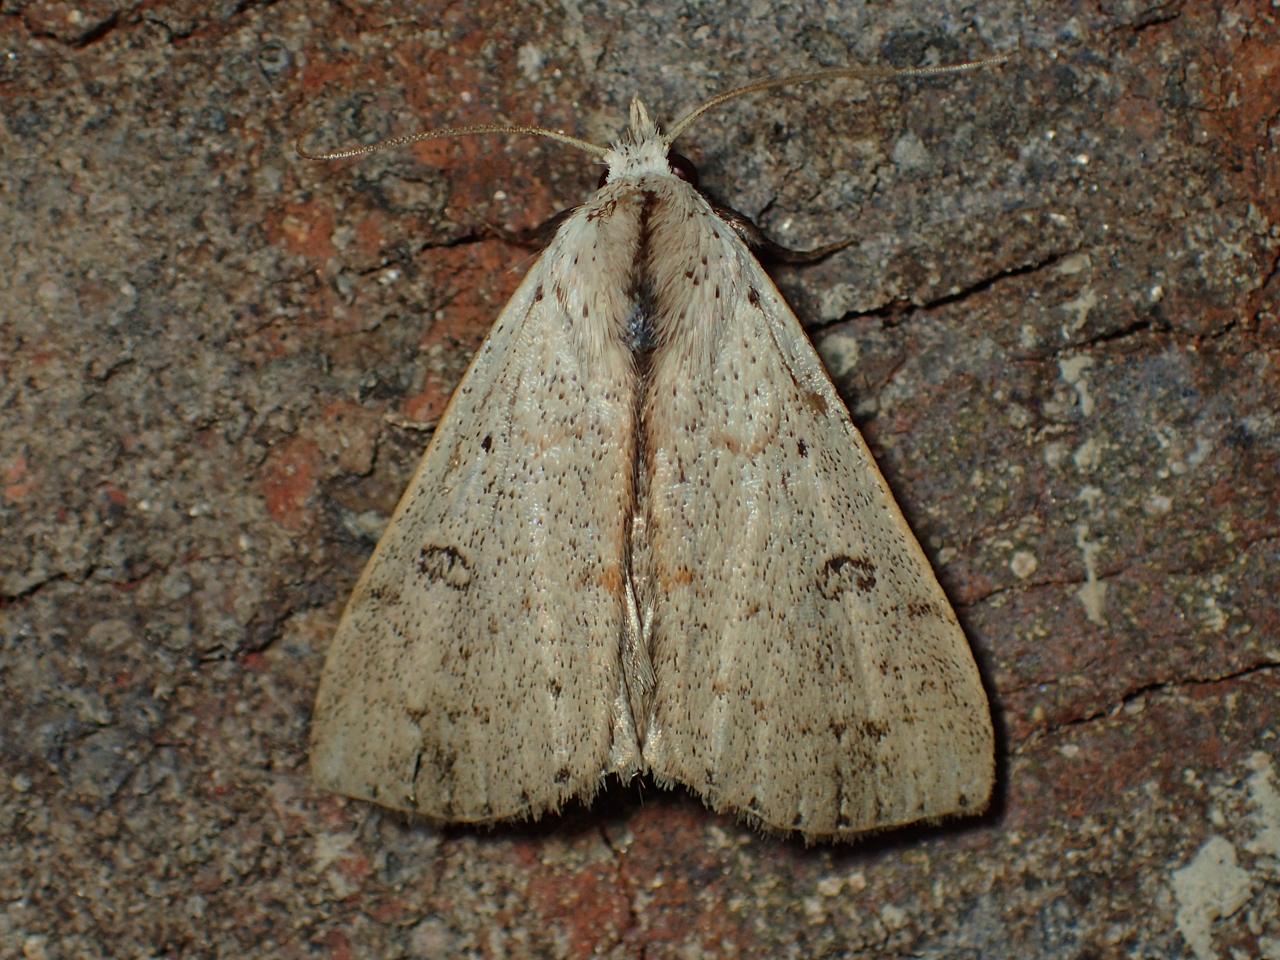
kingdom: Animalia
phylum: Arthropoda
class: Insecta
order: Lepidoptera
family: Erebidae
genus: Scolecocampa
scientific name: Scolecocampa liburna
